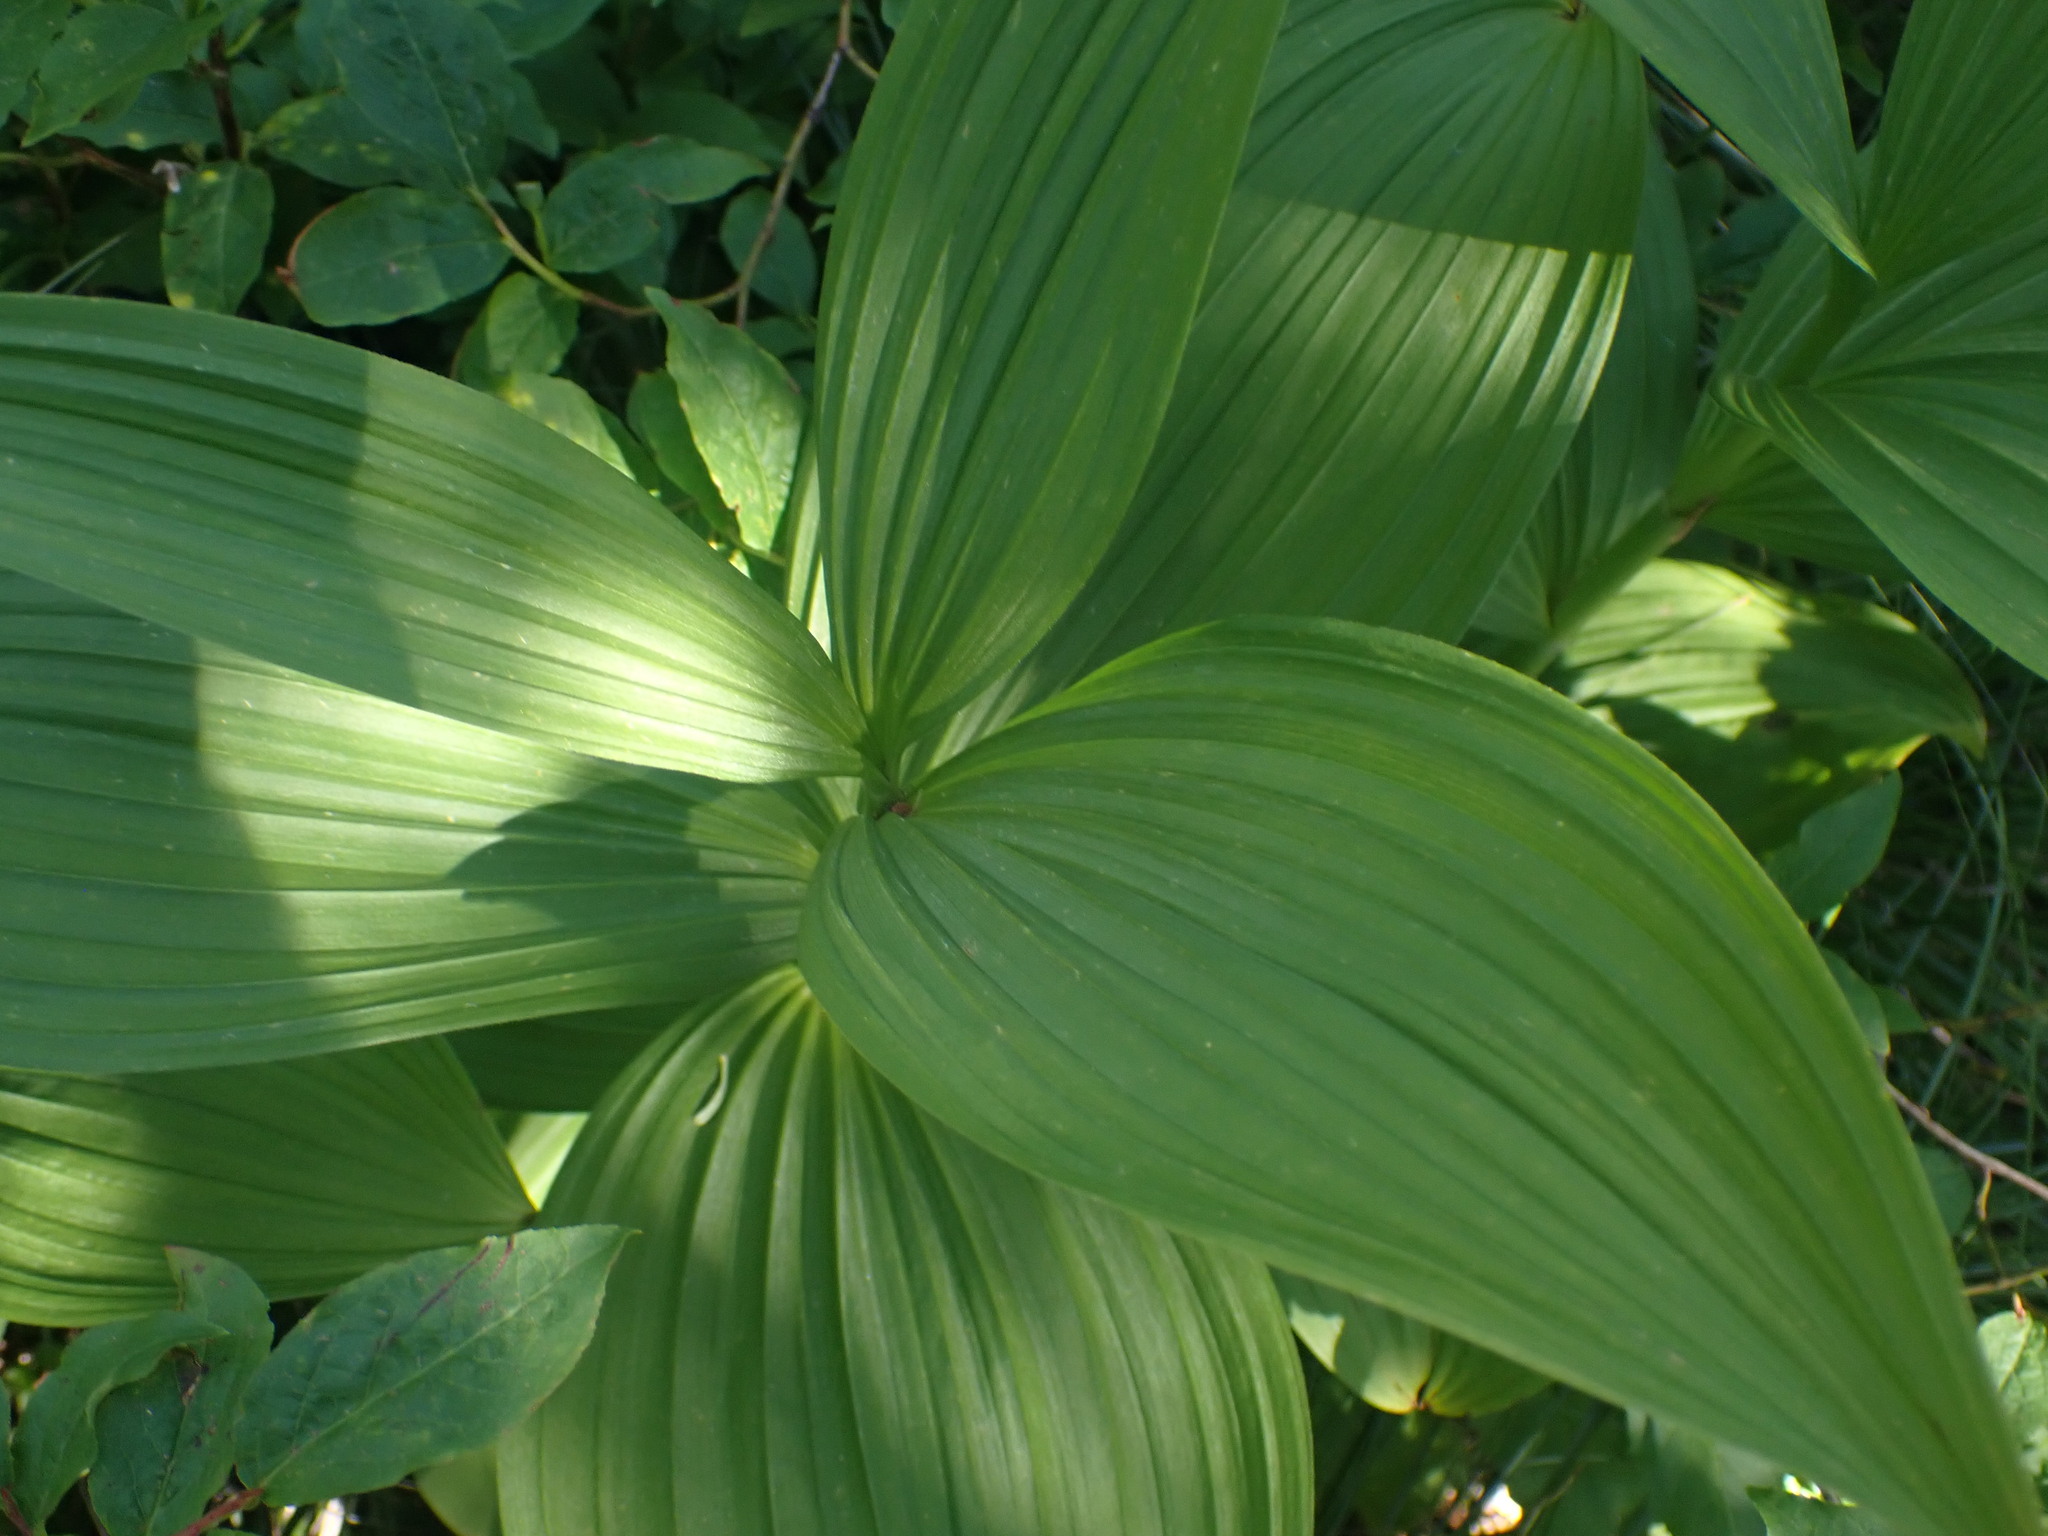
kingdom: Plantae
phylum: Tracheophyta
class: Liliopsida
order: Liliales
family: Melanthiaceae
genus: Veratrum
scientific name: Veratrum viride
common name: American false hellebore
